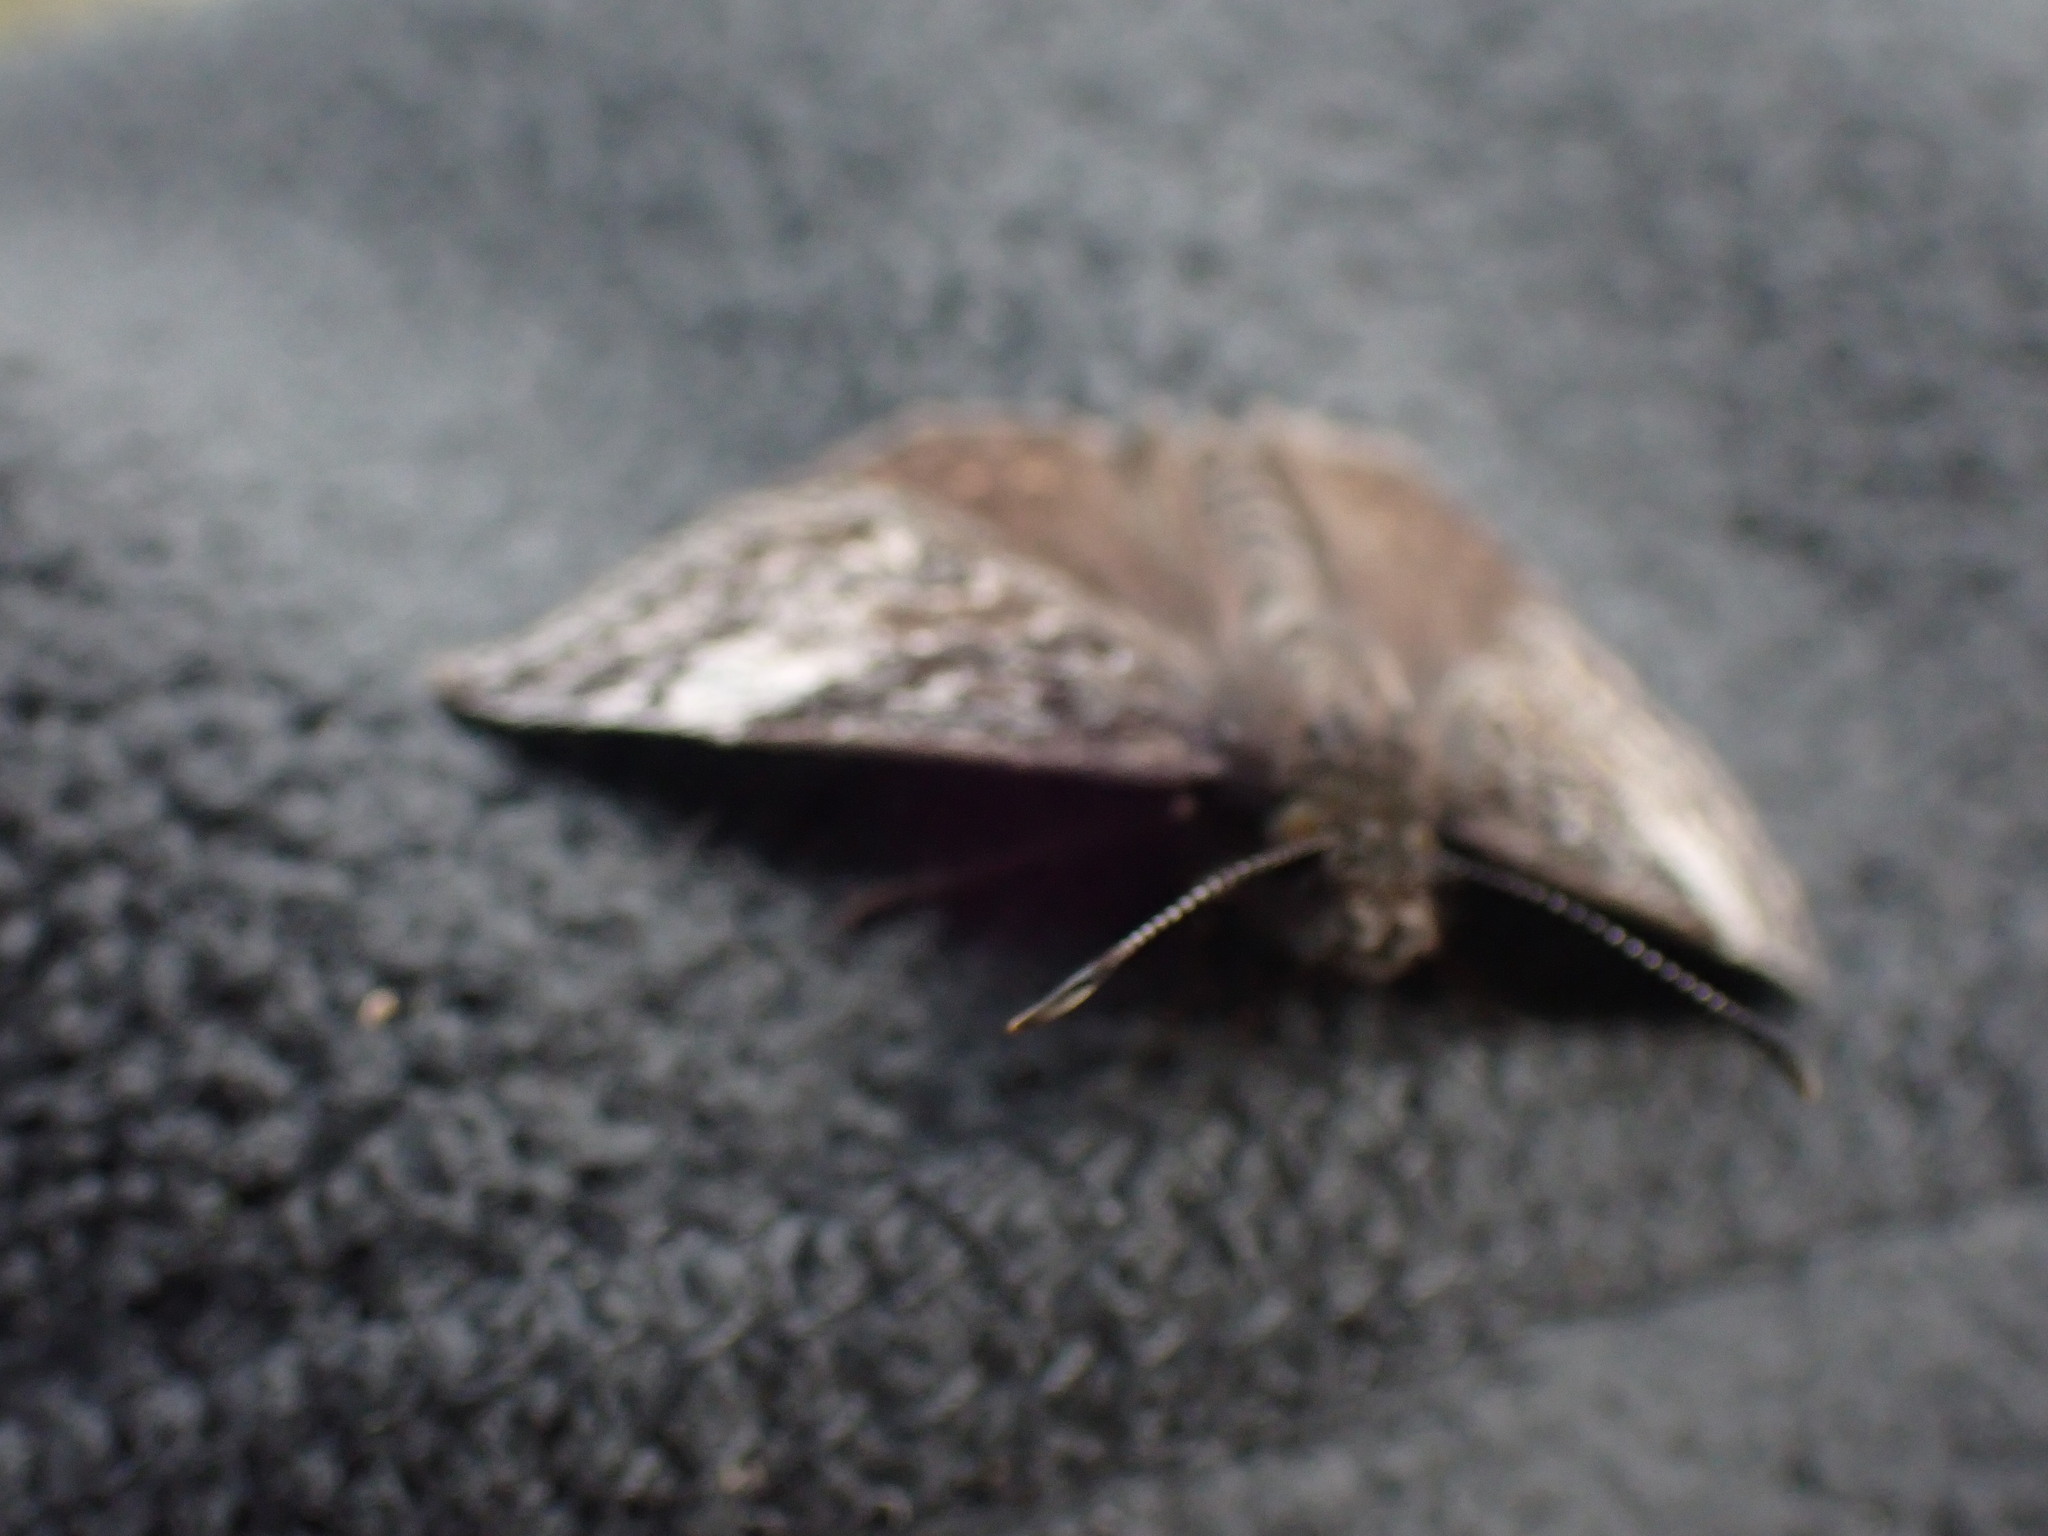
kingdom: Animalia
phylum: Arthropoda
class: Insecta
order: Lepidoptera
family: Hesperiidae
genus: Erynnis
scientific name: Erynnis icelus
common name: Dreamy duskywing
